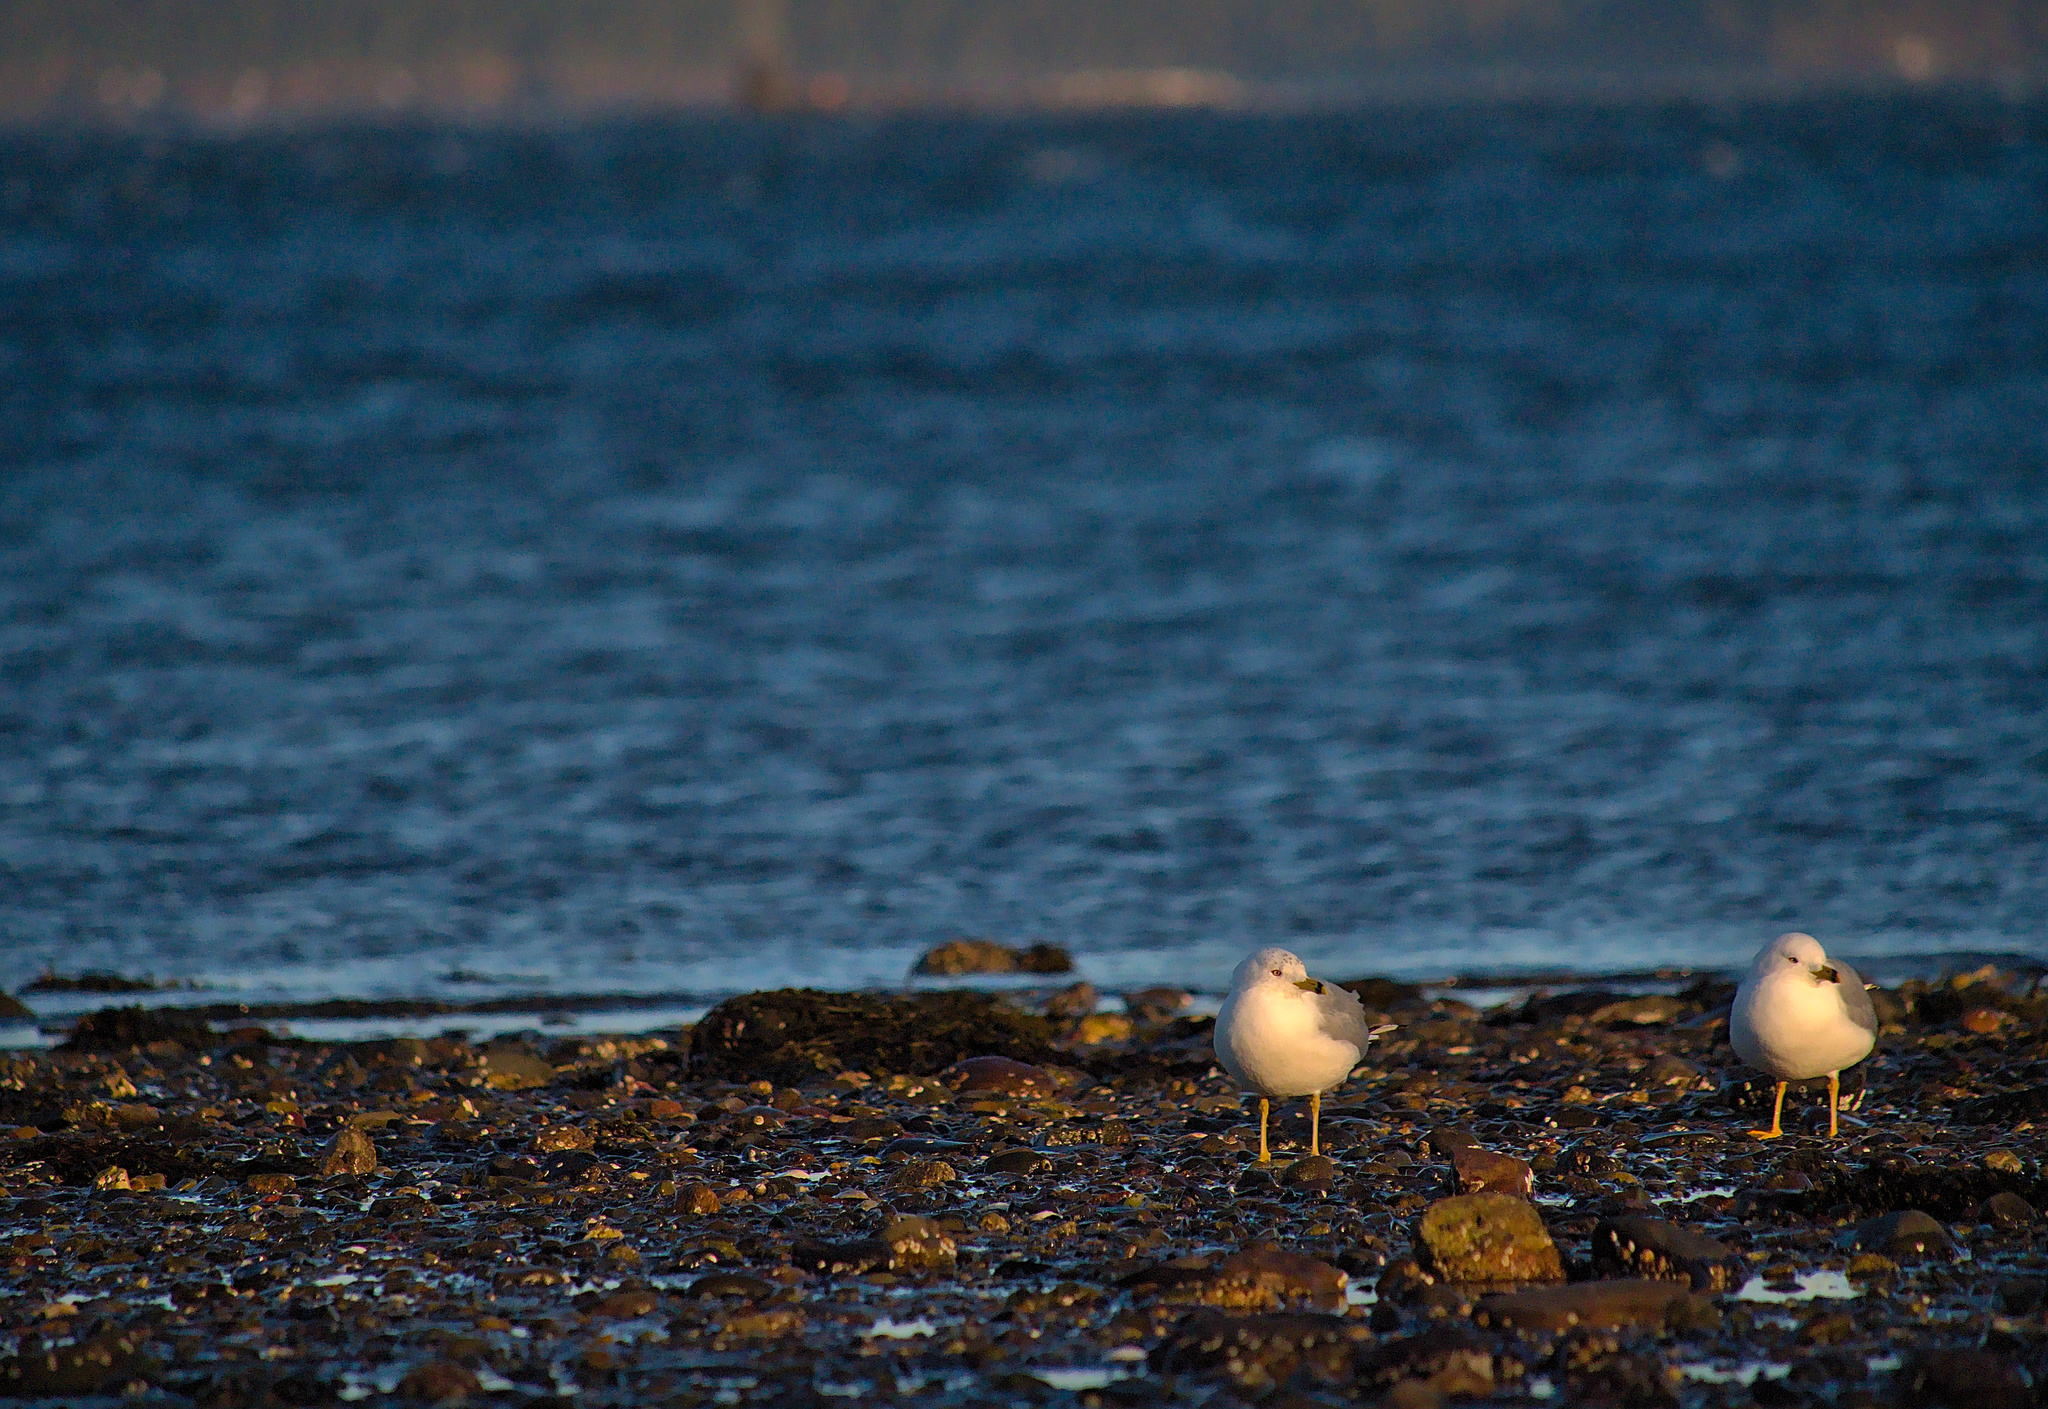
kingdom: Animalia
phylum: Chordata
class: Aves
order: Charadriiformes
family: Laridae
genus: Larus
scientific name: Larus delawarensis
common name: Ring-billed gull
